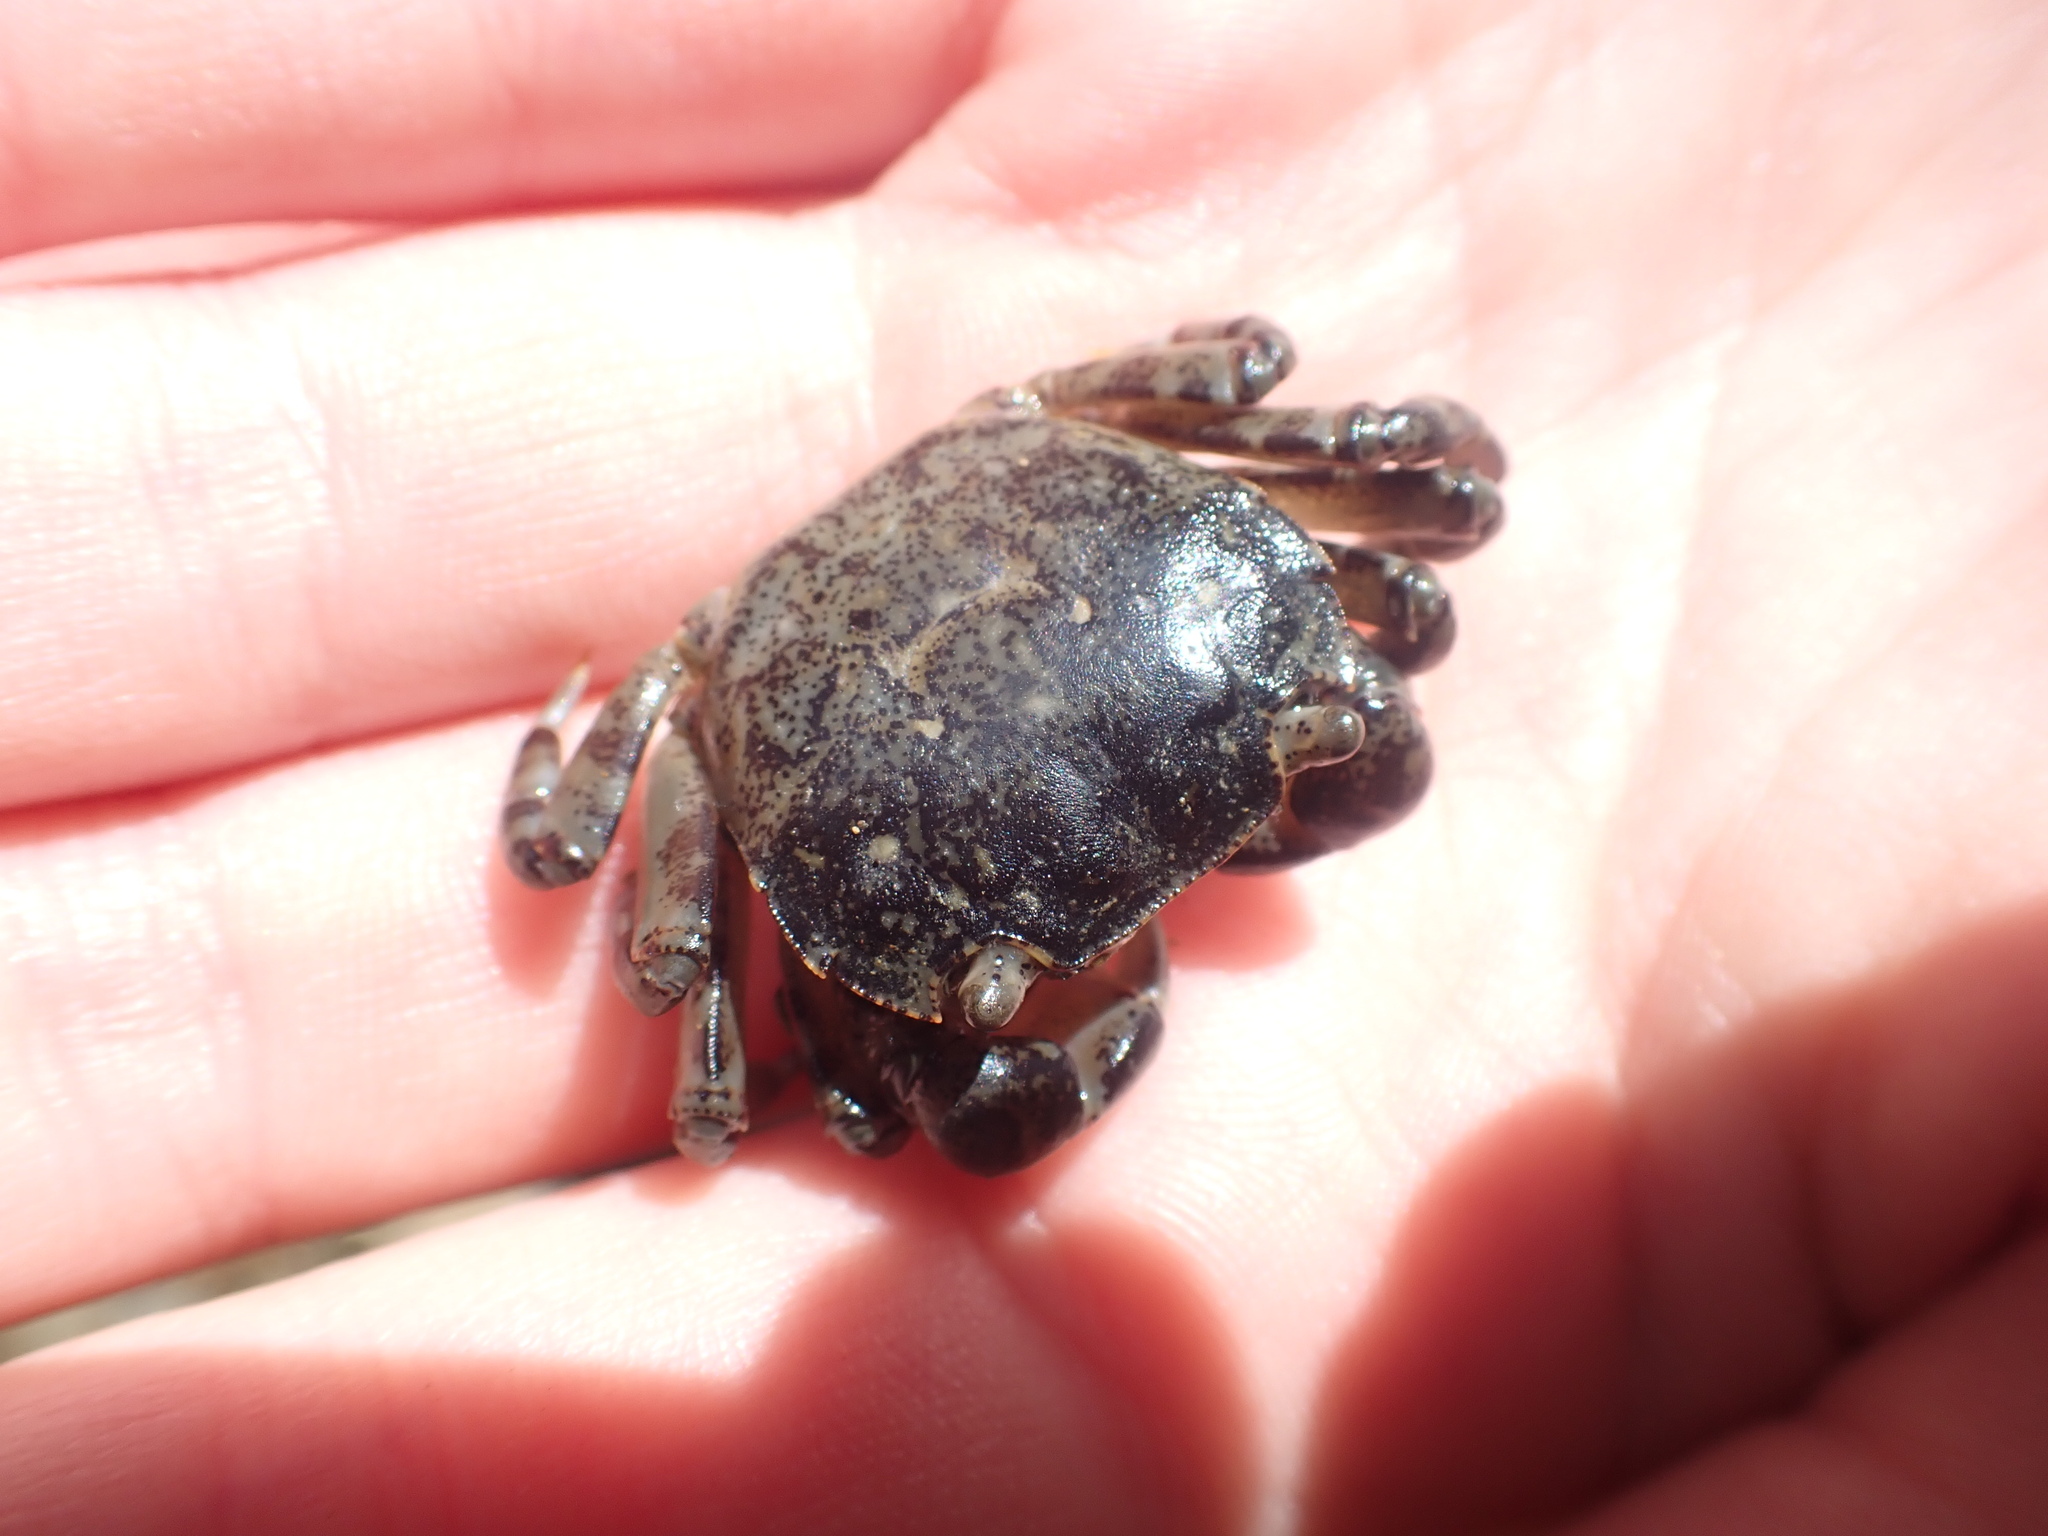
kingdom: Animalia
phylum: Arthropoda
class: Malacostraca
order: Decapoda
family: Varunidae
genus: Hemigrapsus
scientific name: Hemigrapsus sexdentatus
